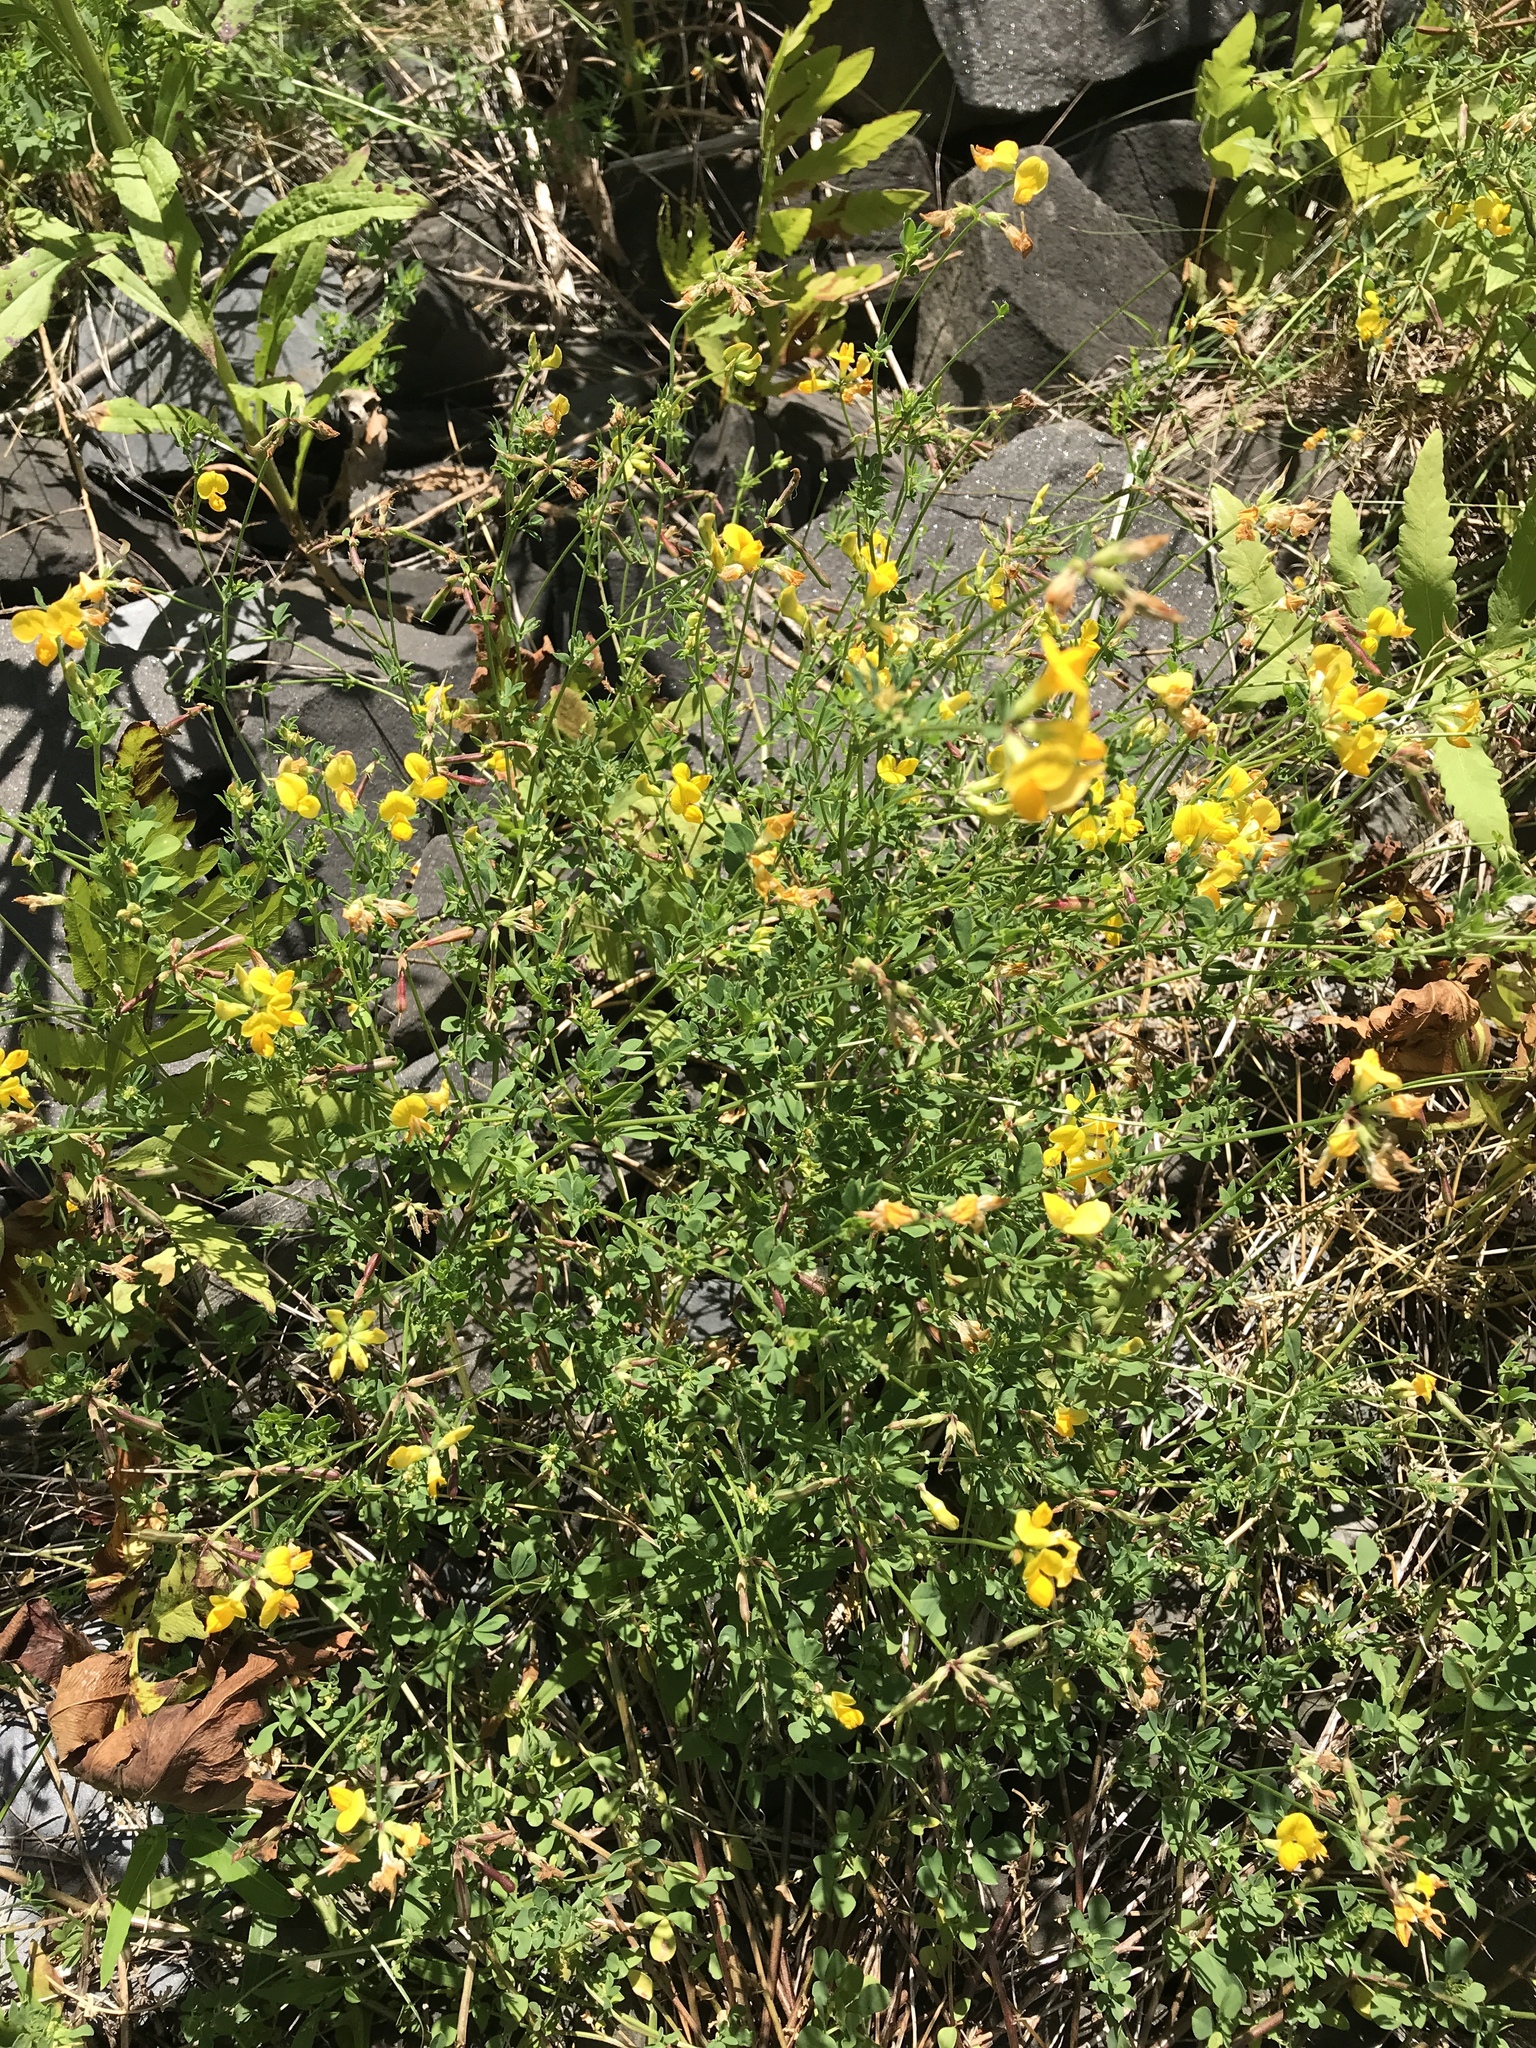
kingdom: Plantae
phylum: Tracheophyta
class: Magnoliopsida
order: Fabales
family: Fabaceae
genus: Lotus
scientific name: Lotus corniculatus
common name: Common bird's-foot-trefoil
